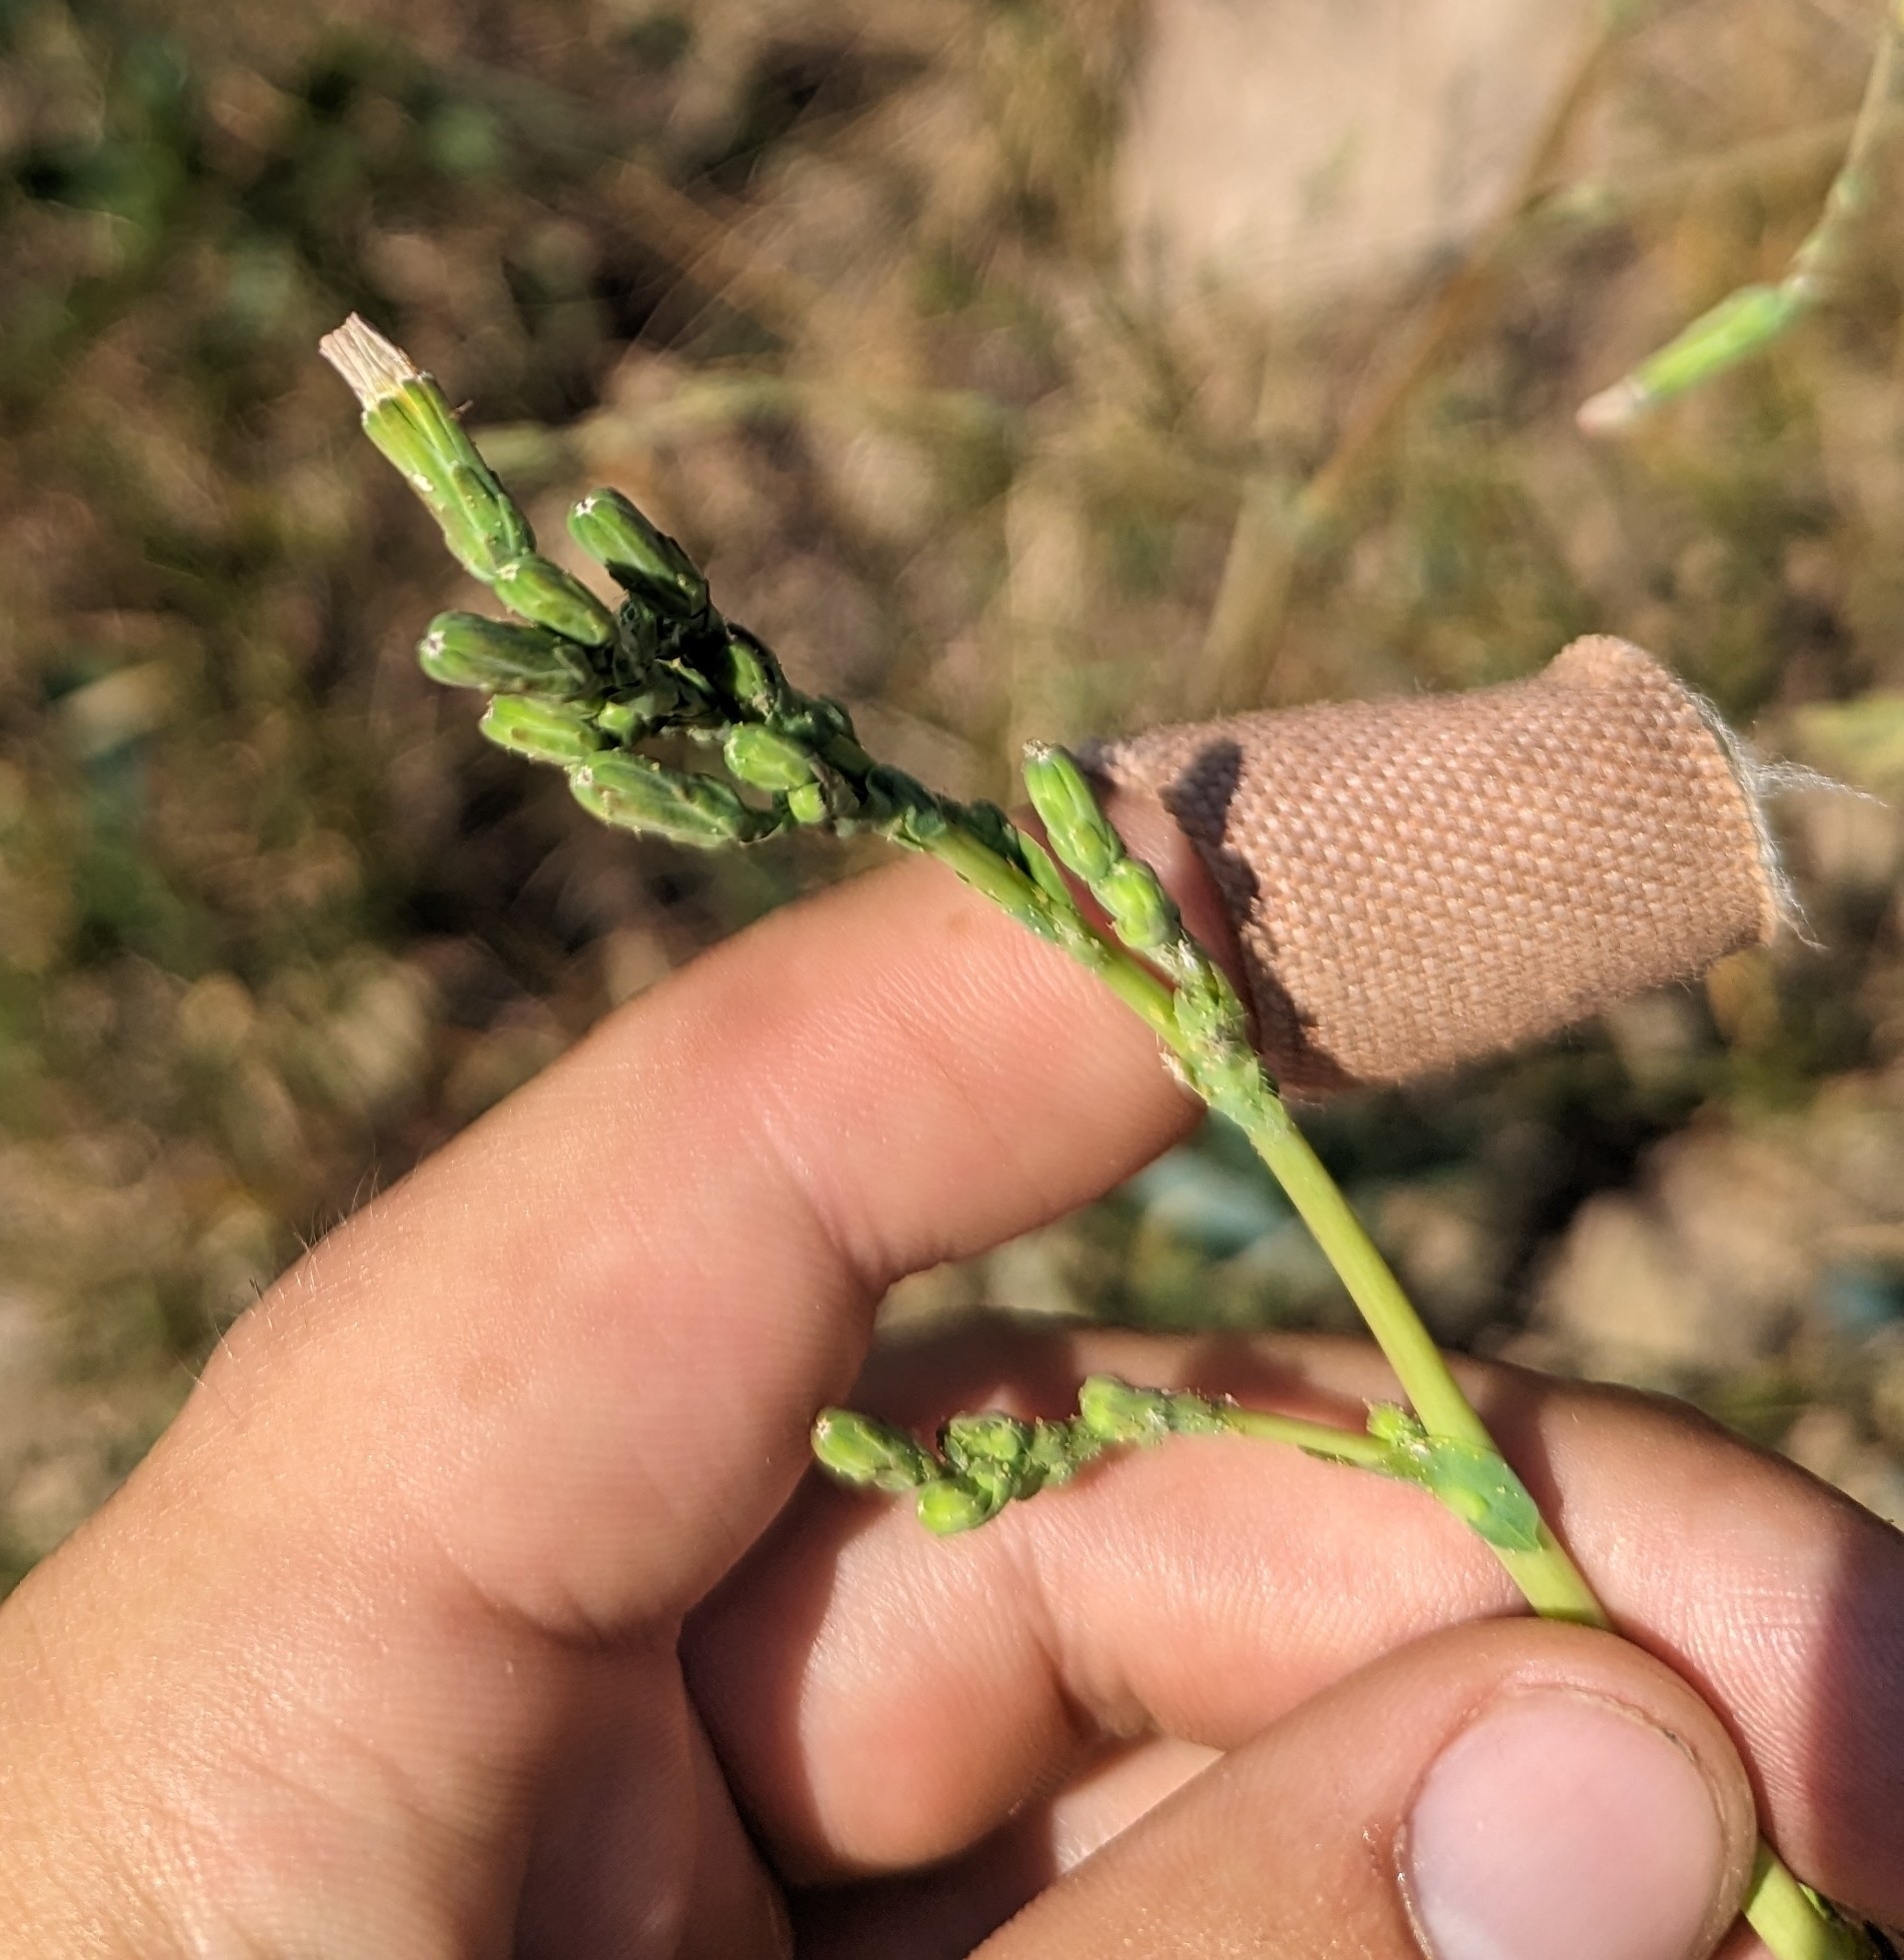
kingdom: Plantae
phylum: Tracheophyta
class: Magnoliopsida
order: Asterales
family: Asteraceae
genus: Lactuca
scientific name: Lactuca serriola
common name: Prickly lettuce
